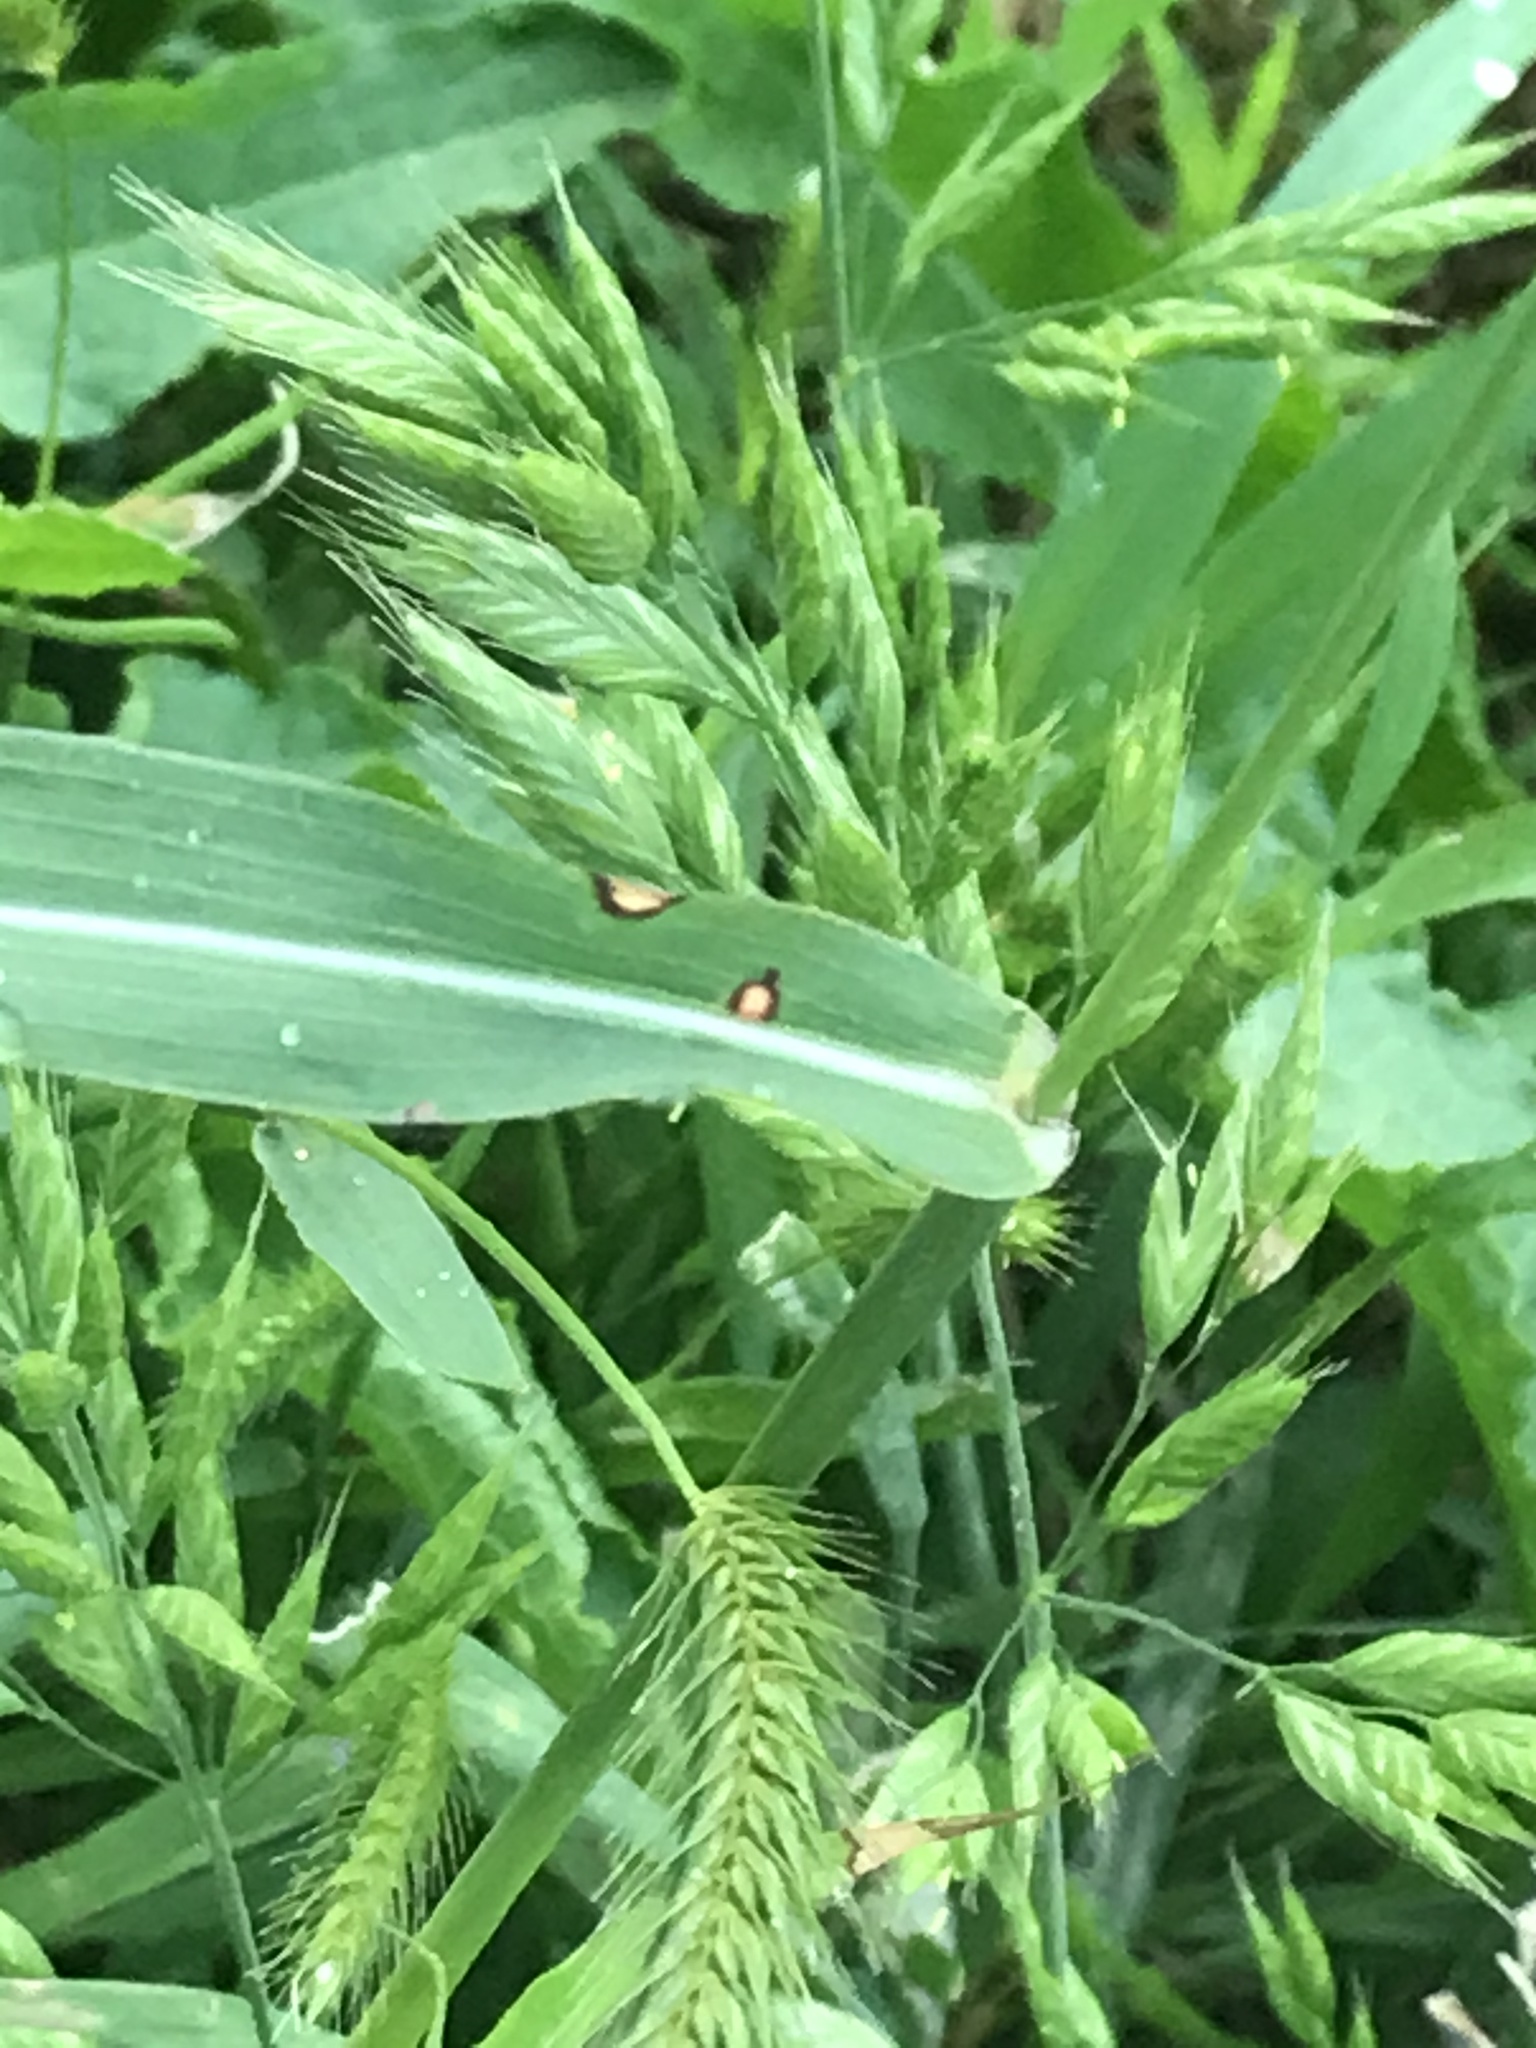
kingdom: Plantae
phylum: Tracheophyta
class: Liliopsida
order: Poales
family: Poaceae
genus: Sorghum
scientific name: Sorghum halepense
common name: Johnson-grass
